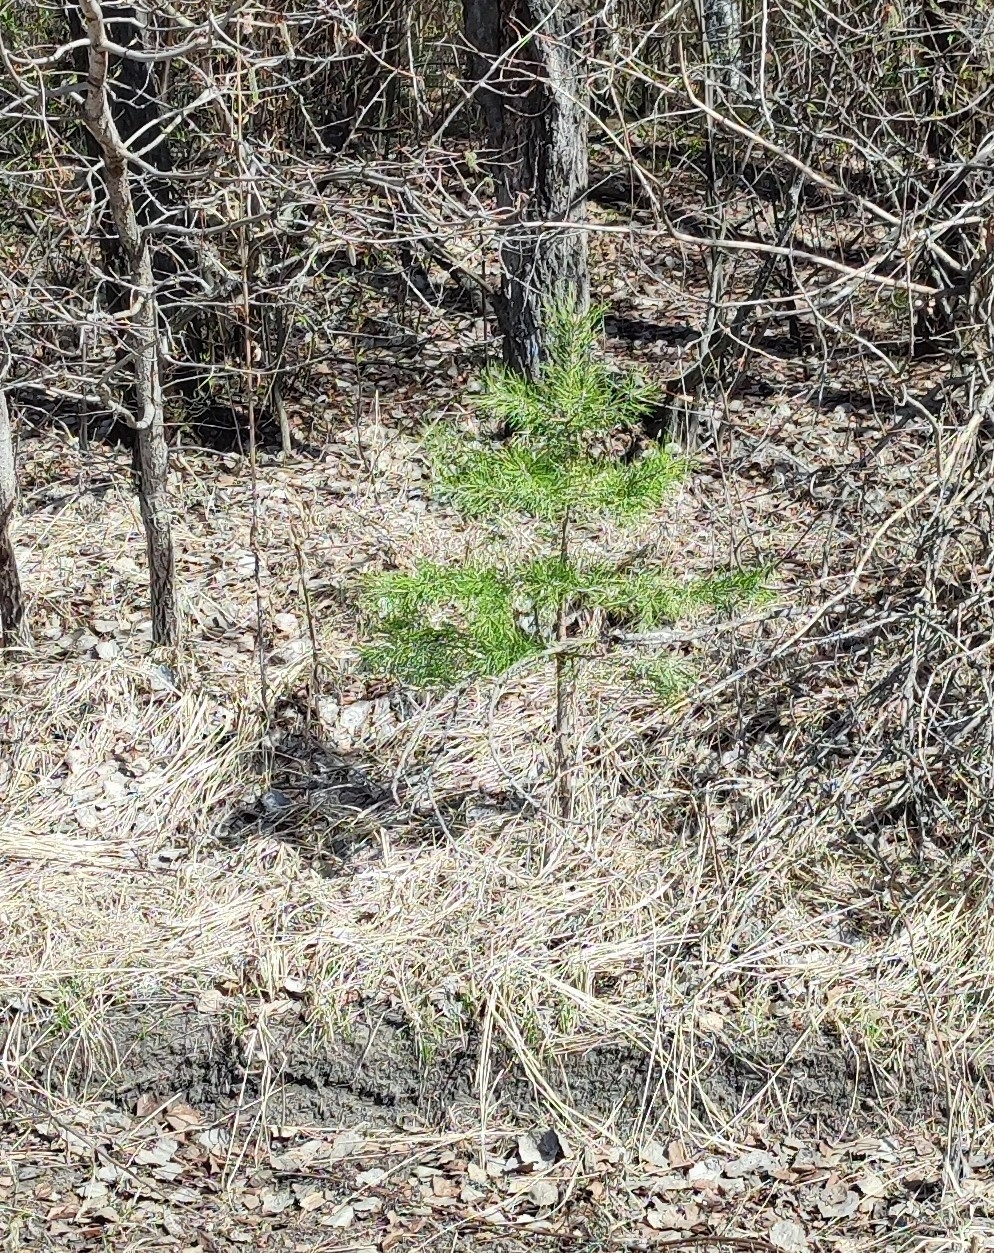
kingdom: Plantae
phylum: Tracheophyta
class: Pinopsida
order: Pinales
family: Pinaceae
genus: Pinus
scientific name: Pinus sylvestris
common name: Scots pine
